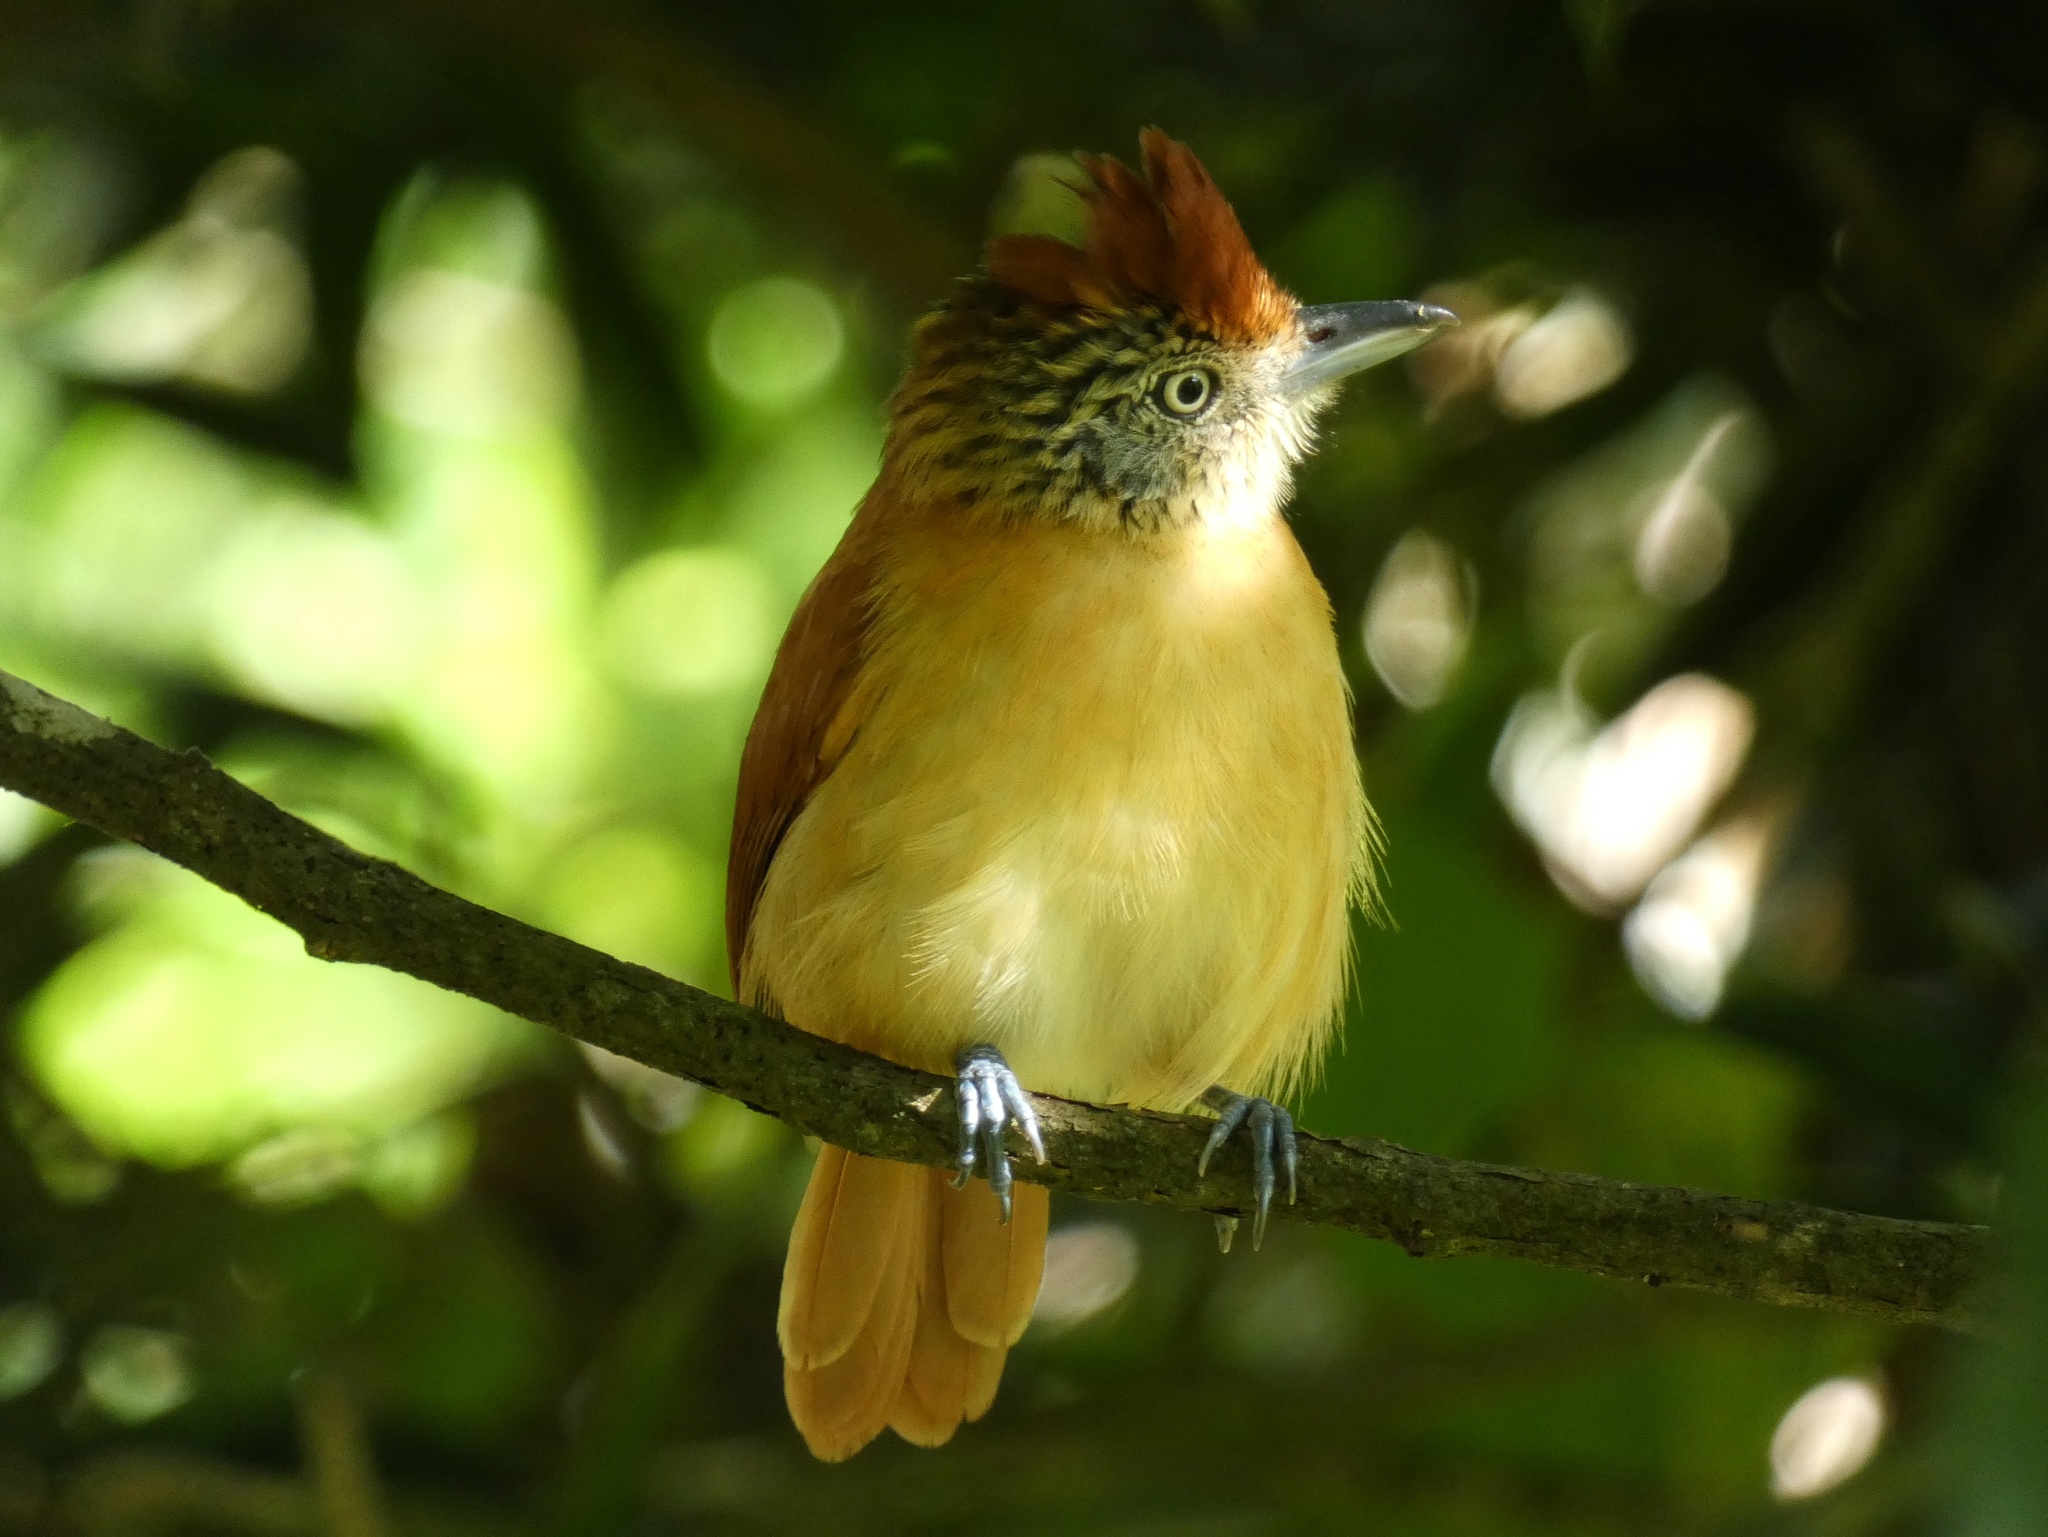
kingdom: Animalia
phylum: Chordata
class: Aves
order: Passeriformes
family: Thamnophilidae
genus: Thamnophilus
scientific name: Thamnophilus doliatus
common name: Barred antshrike
